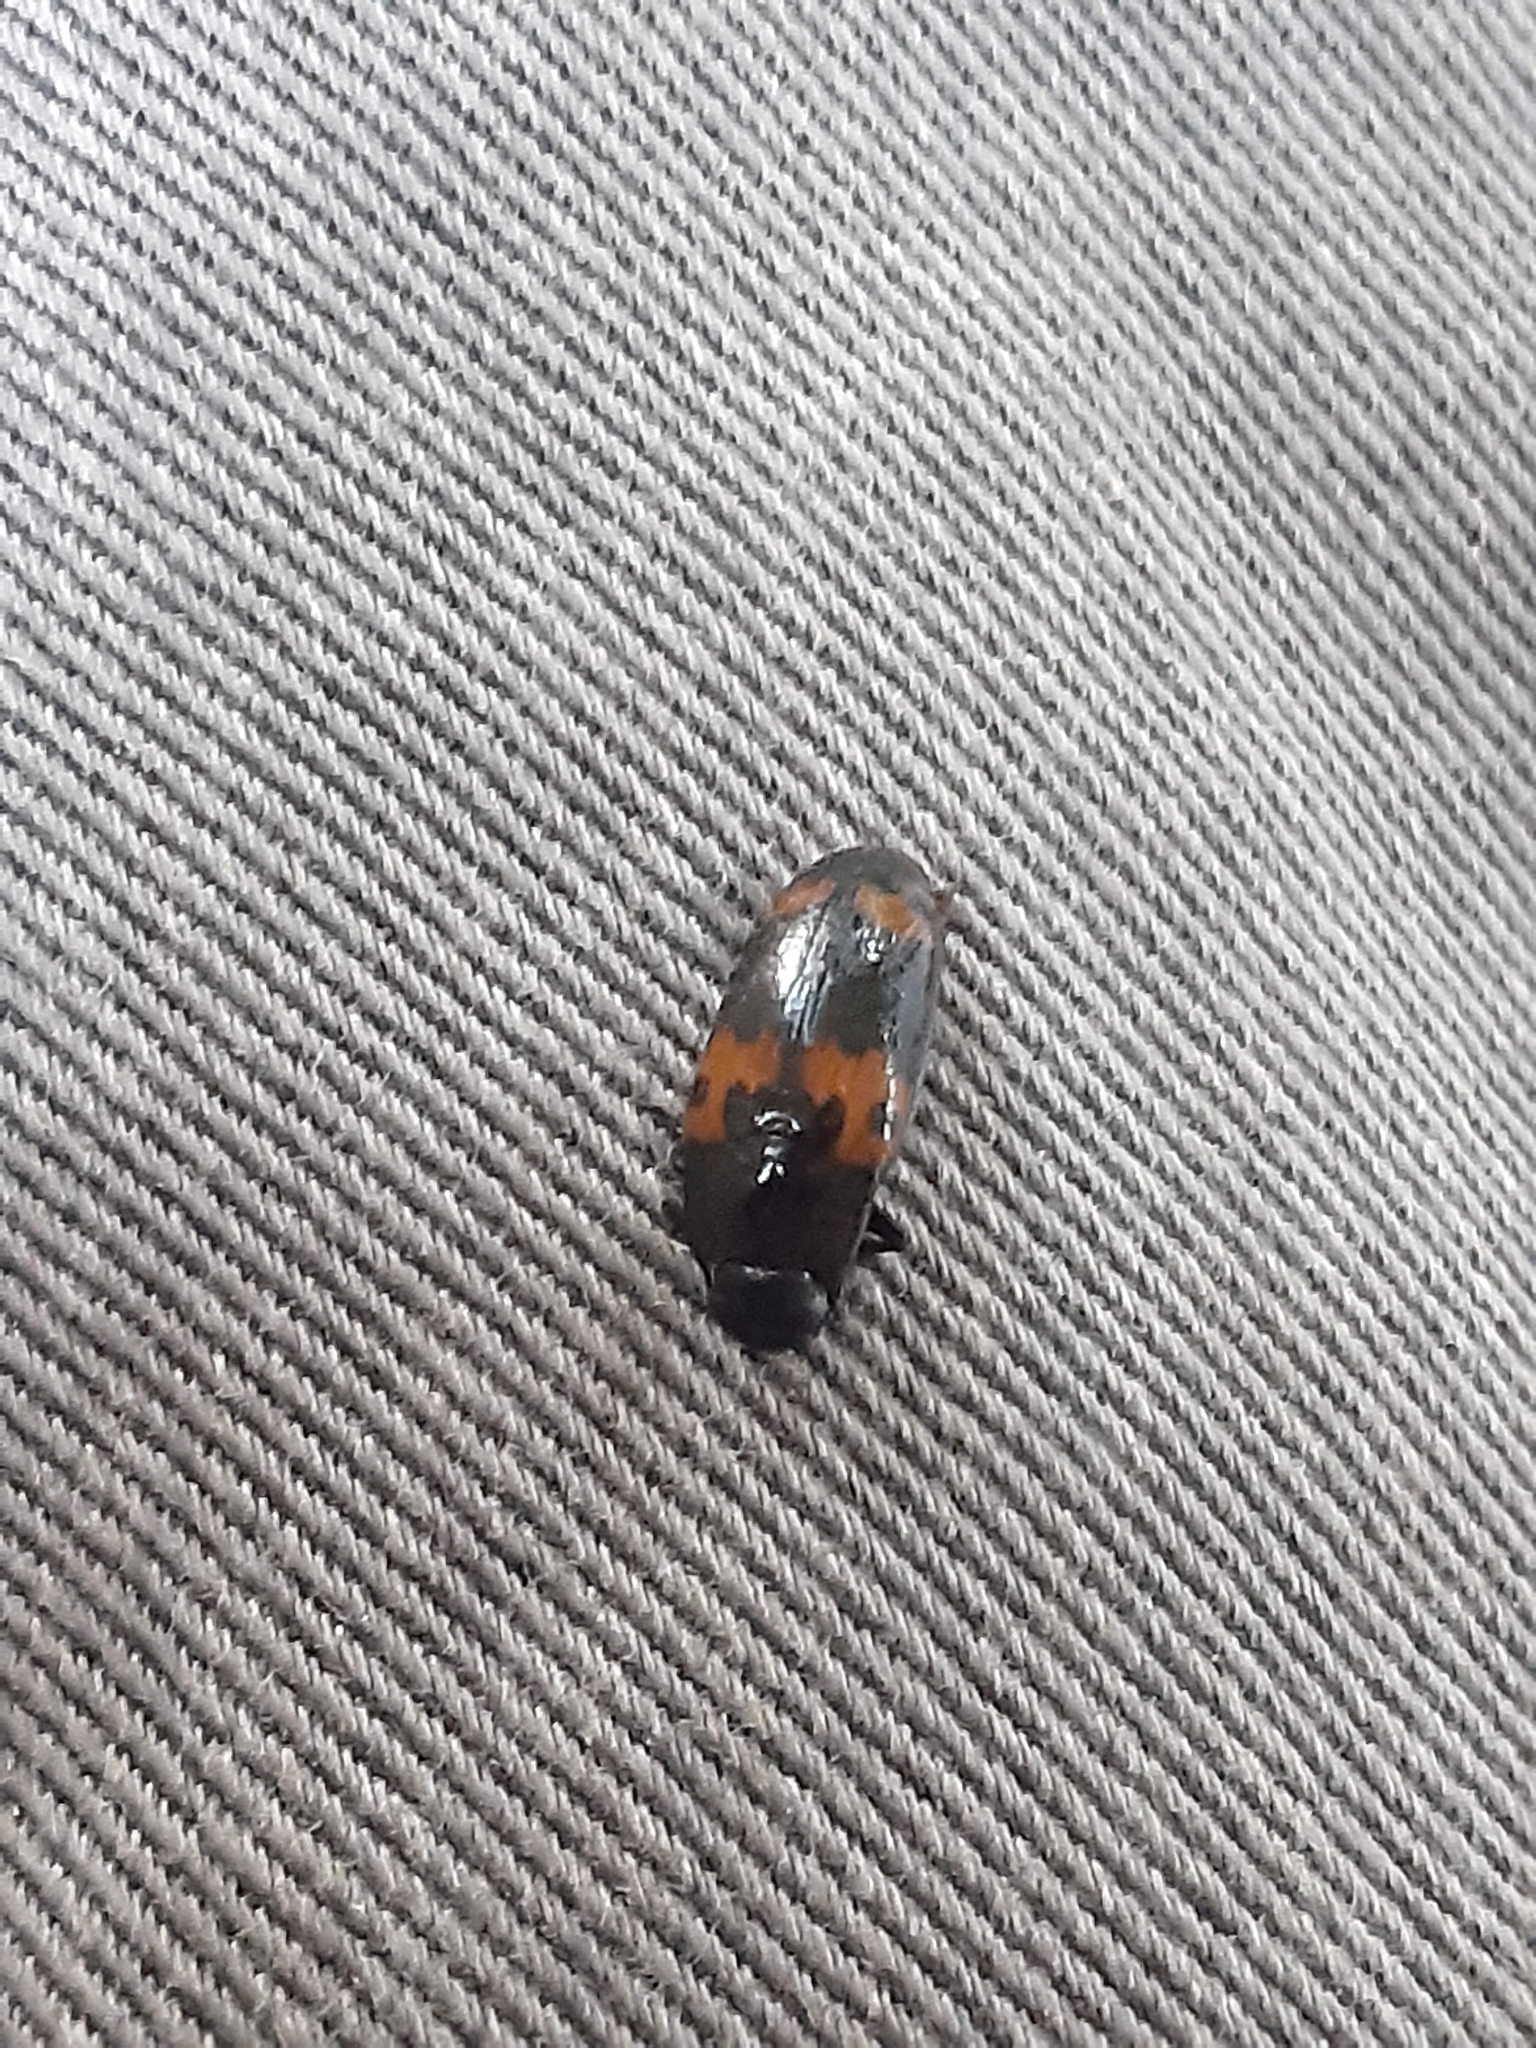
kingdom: Animalia
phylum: Arthropoda
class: Insecta
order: Coleoptera
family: Erotylidae
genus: Megalodacne
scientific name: Megalodacne fasciata
